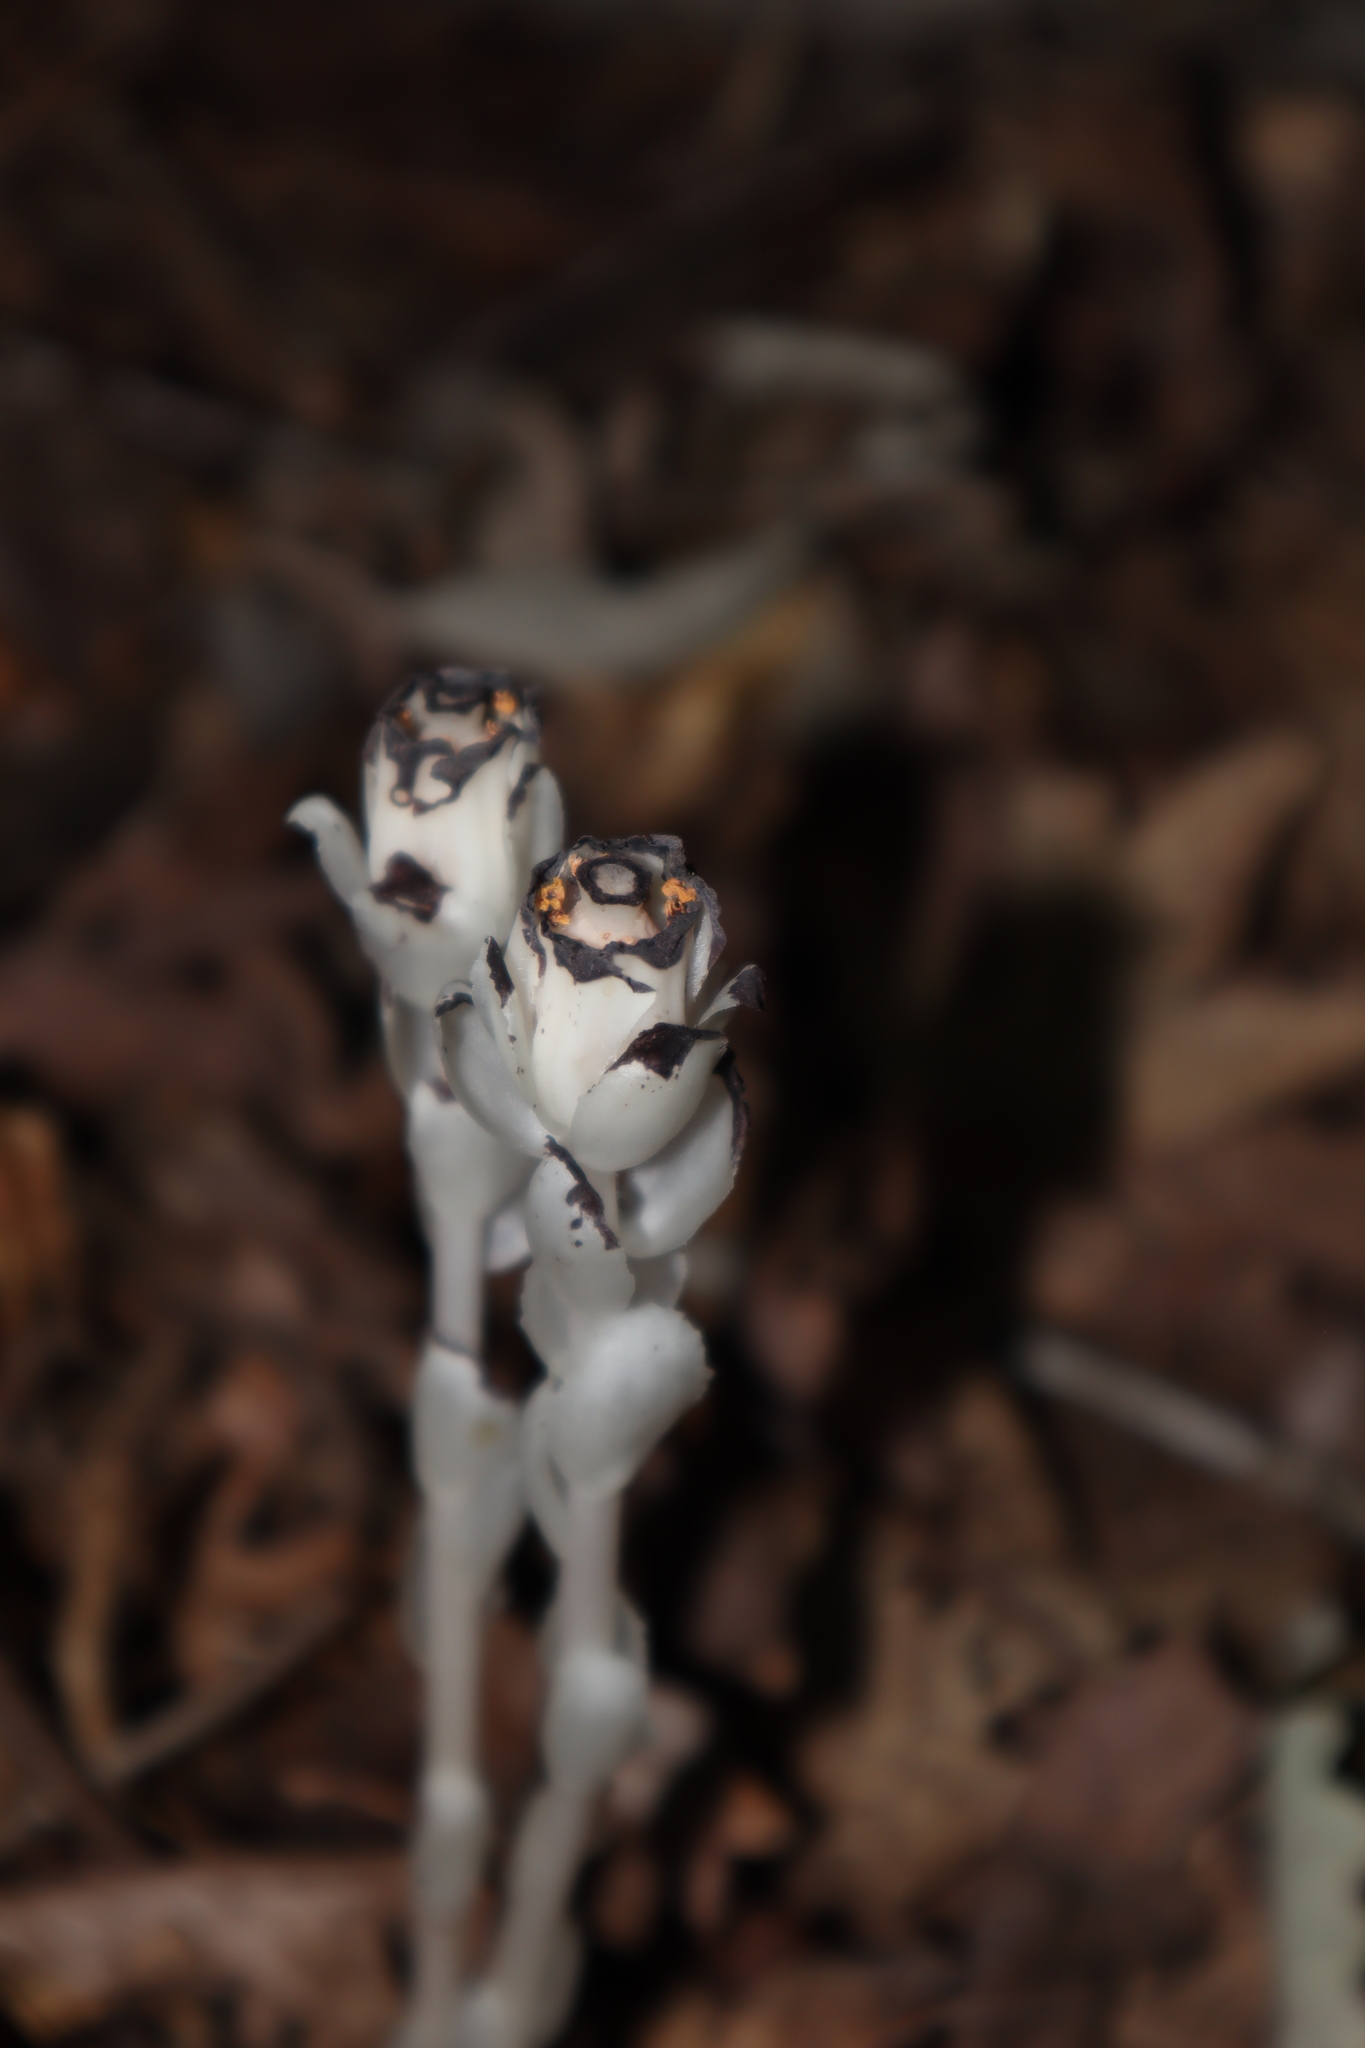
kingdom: Plantae
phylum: Tracheophyta
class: Magnoliopsida
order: Ericales
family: Ericaceae
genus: Monotropa
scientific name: Monotropa uniflora
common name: Convulsion root
